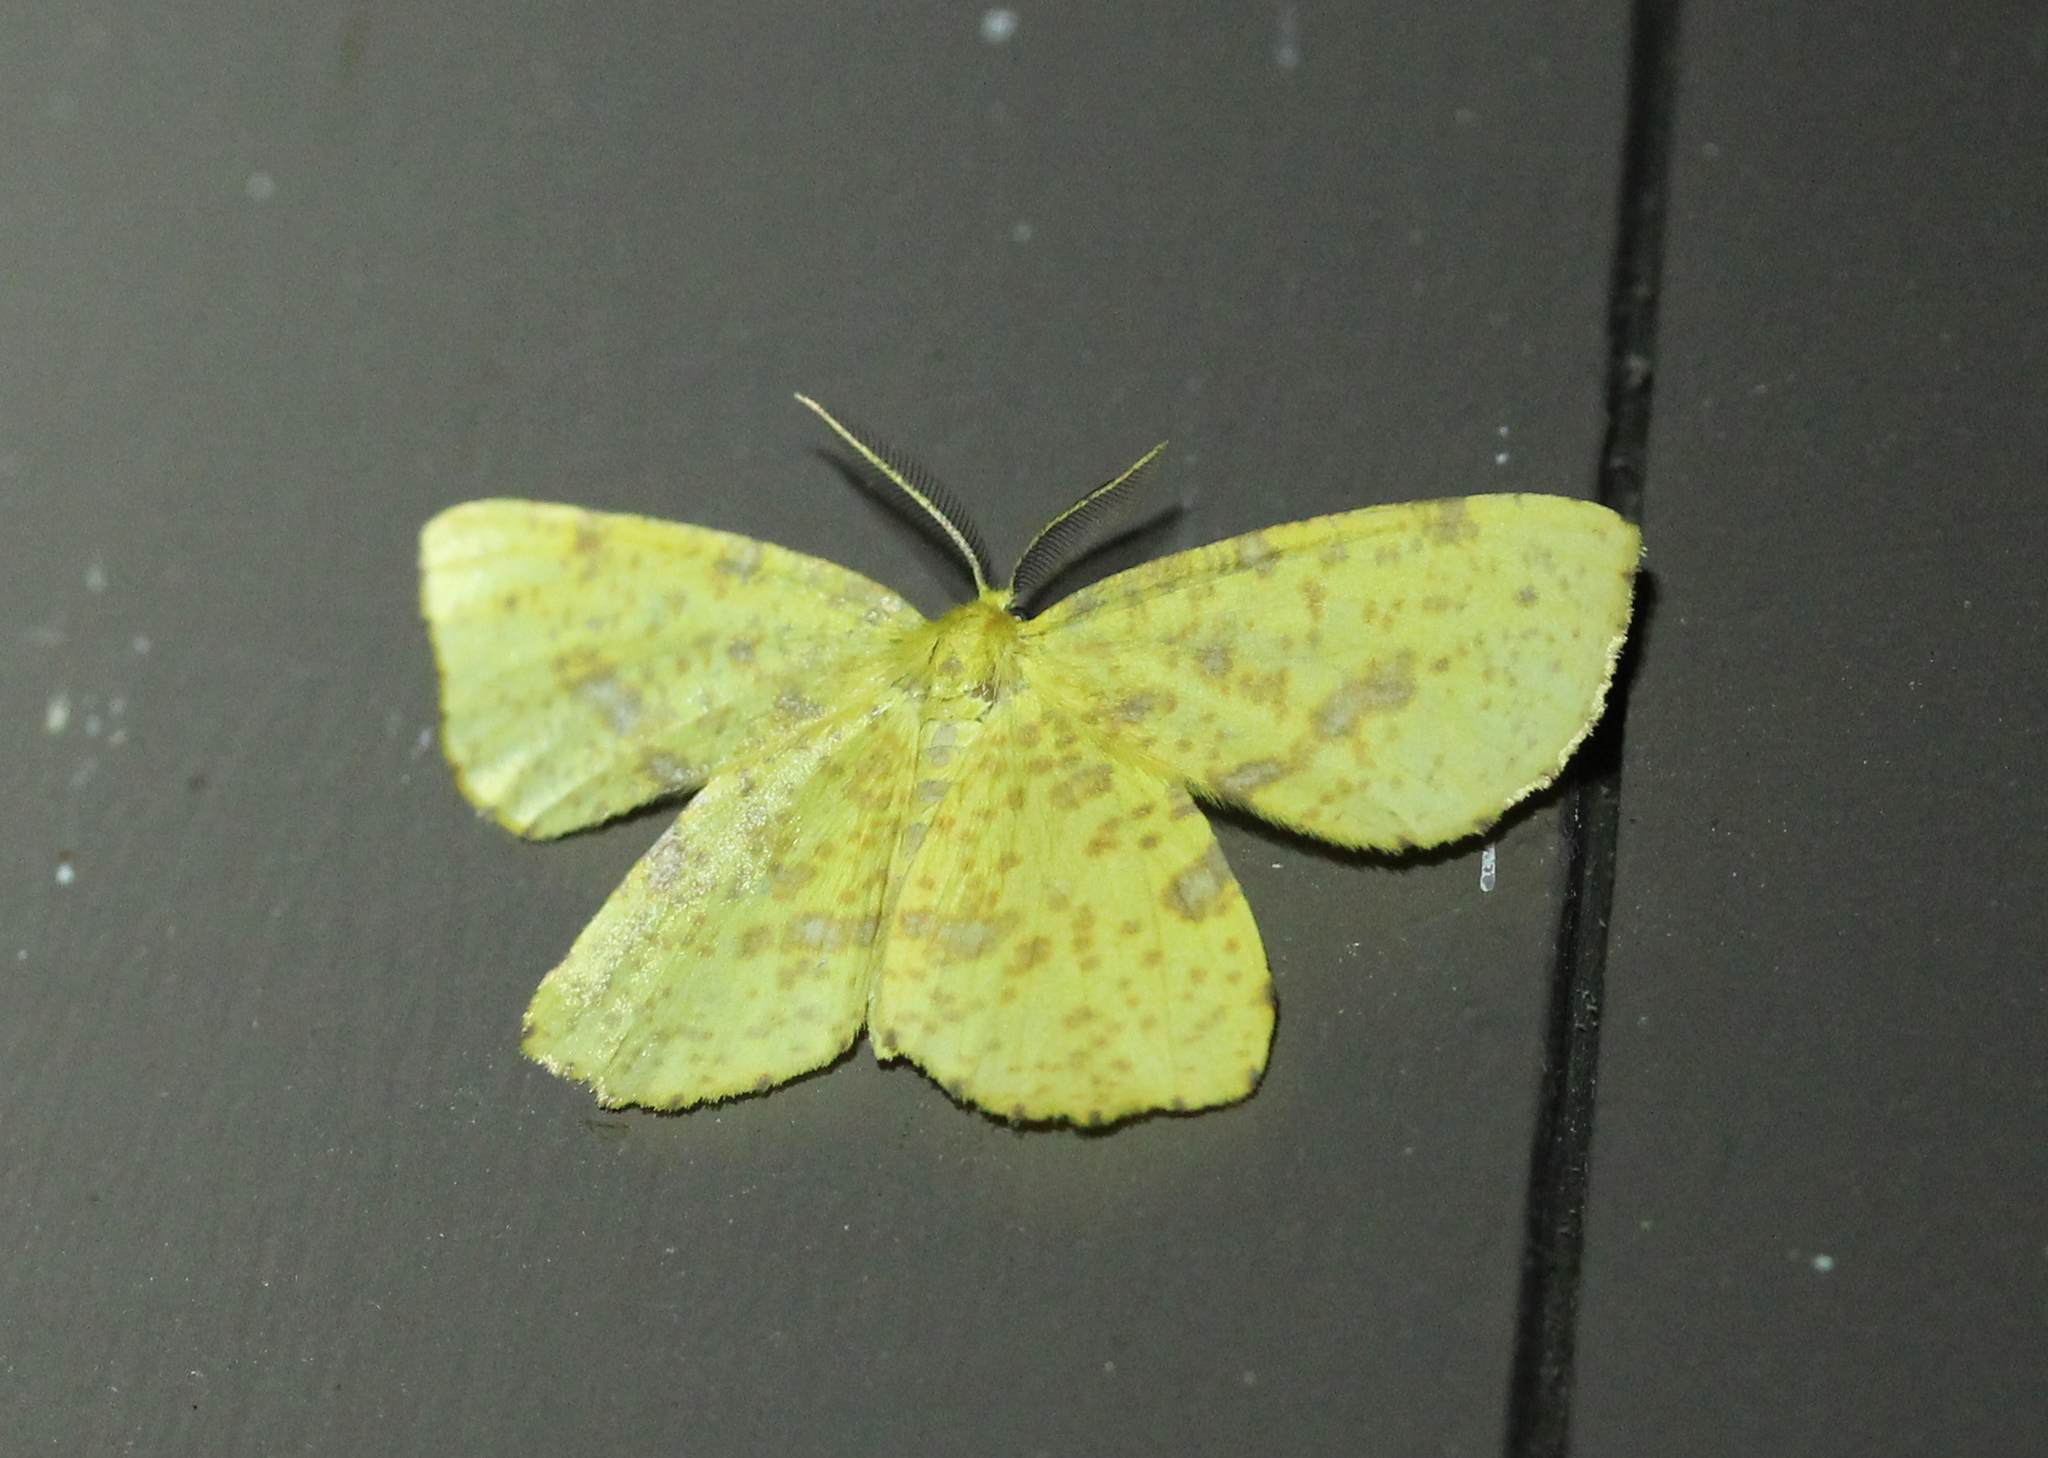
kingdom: Animalia
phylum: Arthropoda
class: Insecta
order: Lepidoptera
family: Geometridae
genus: Xanthotype
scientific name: Xanthotype
